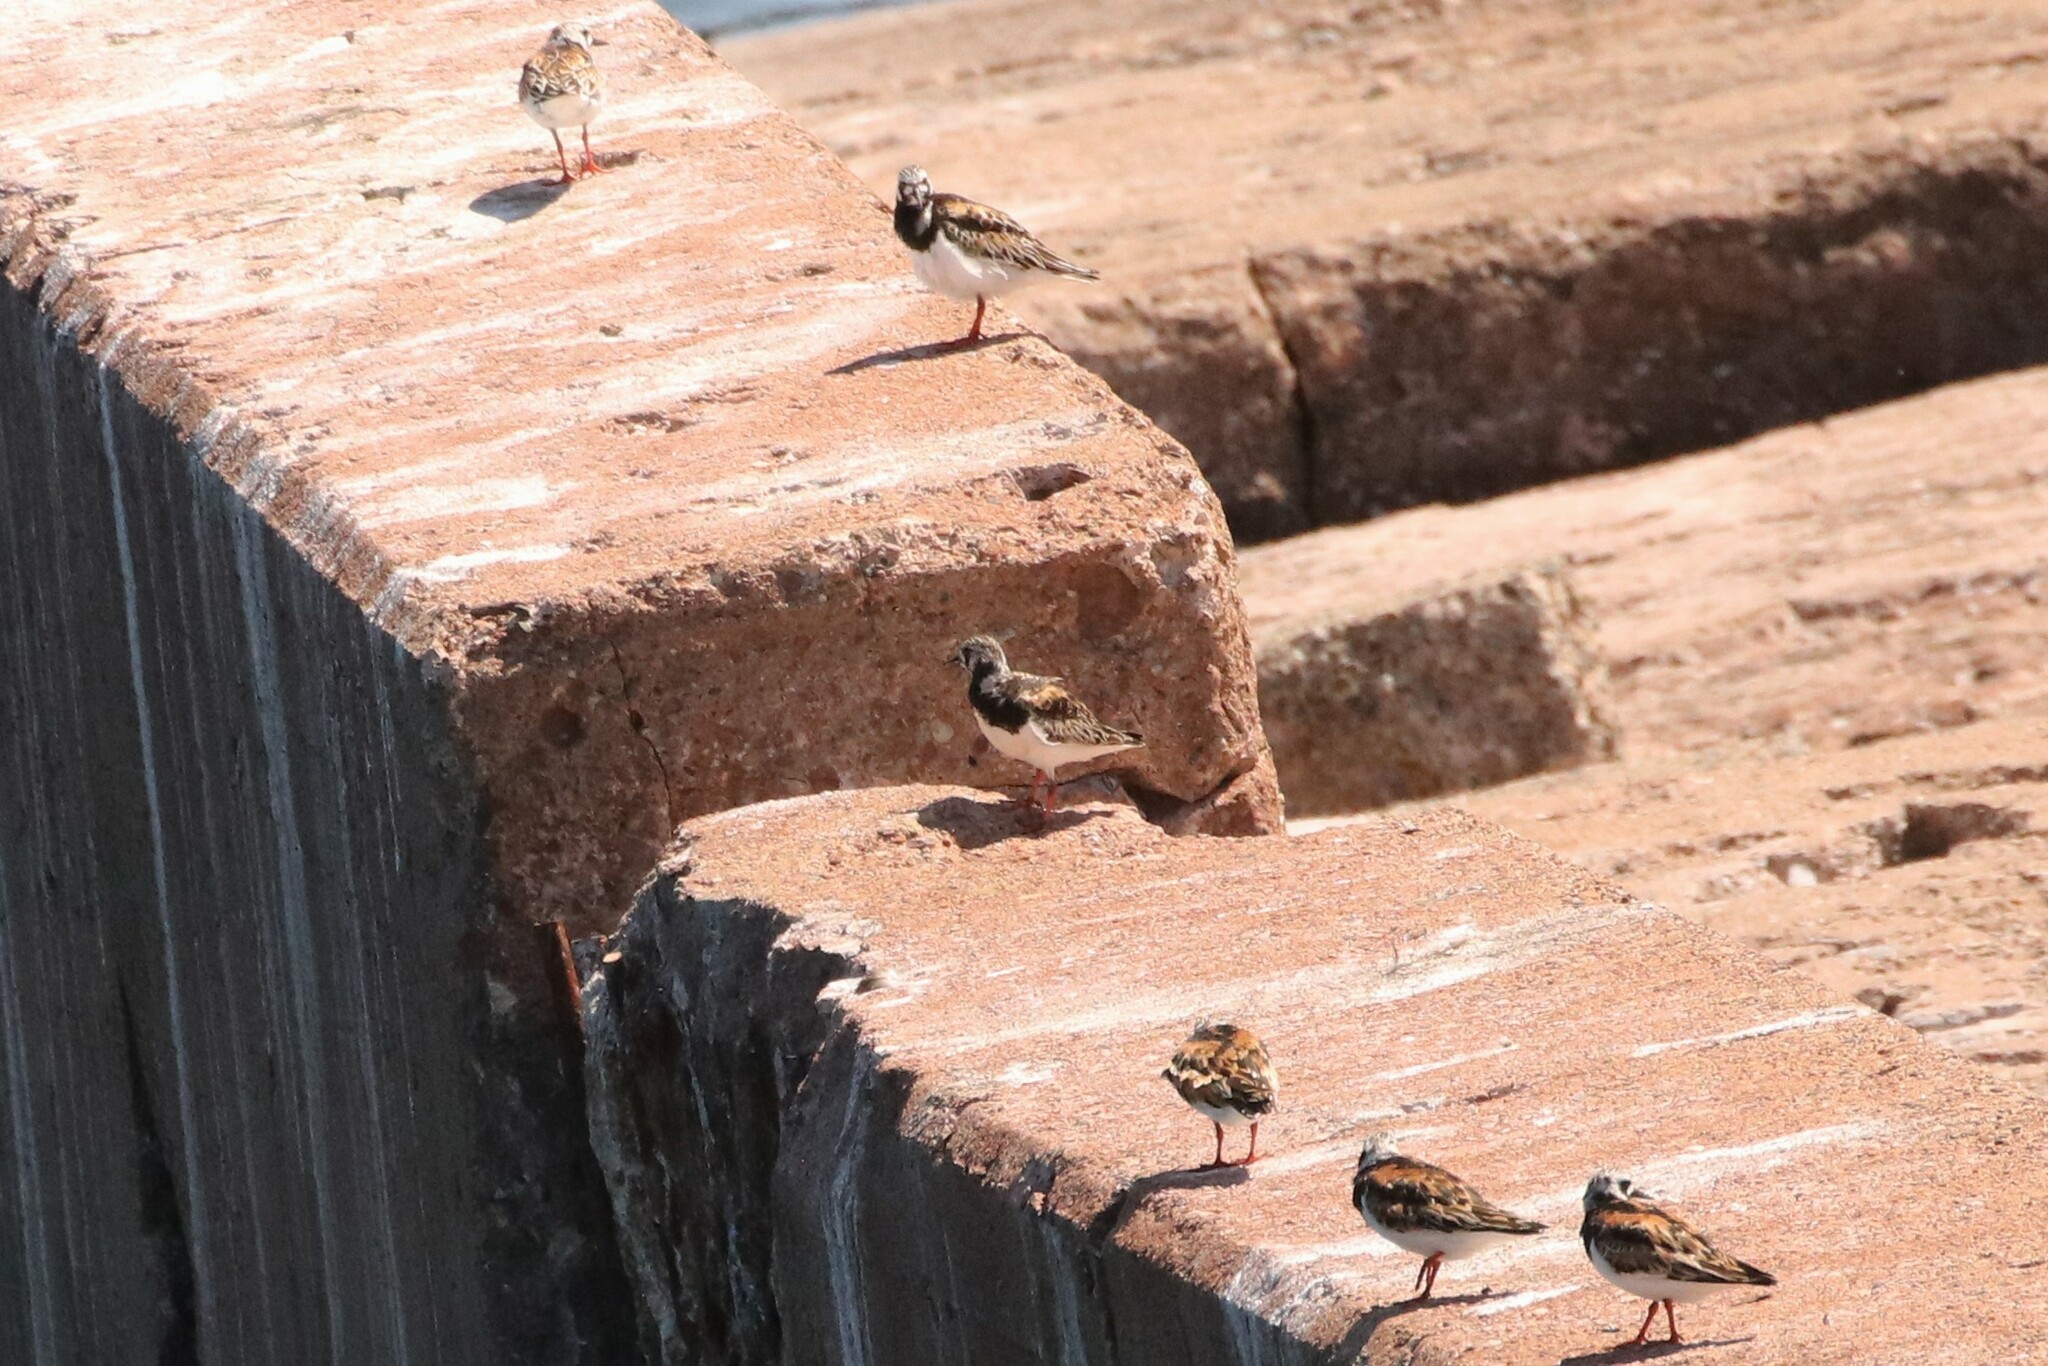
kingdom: Animalia
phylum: Chordata
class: Aves
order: Charadriiformes
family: Scolopacidae
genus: Arenaria
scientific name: Arenaria interpres
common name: Ruddy turnstone
